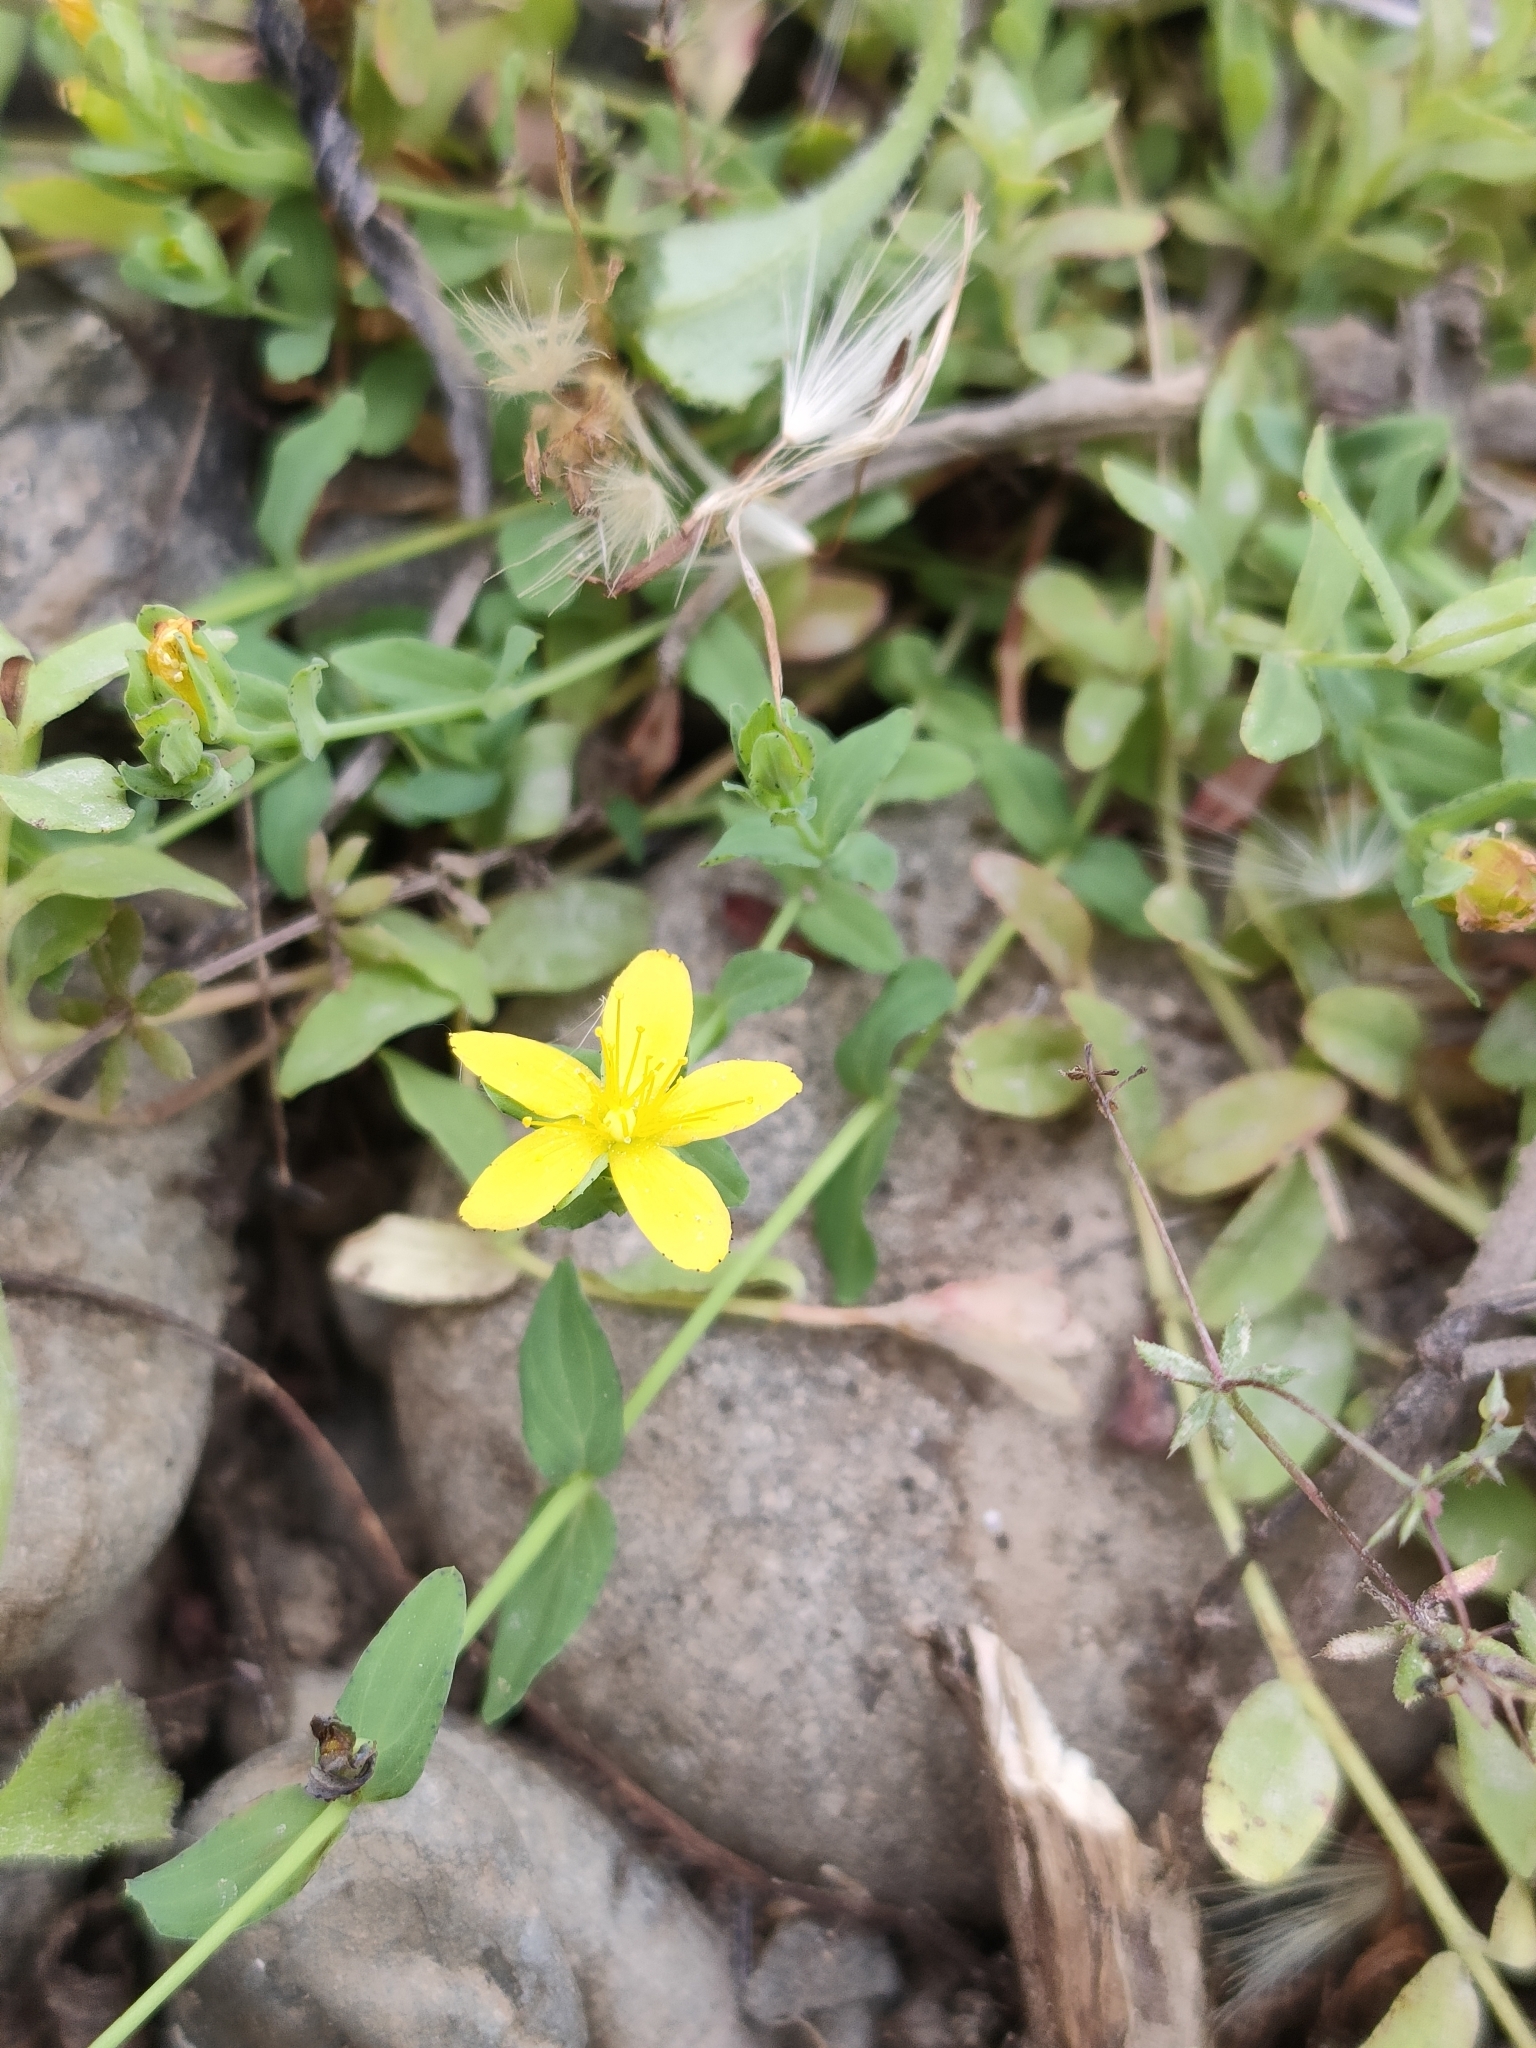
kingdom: Plantae
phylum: Tracheophyta
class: Magnoliopsida
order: Malpighiales
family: Hypericaceae
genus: Hypericum
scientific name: Hypericum humifusum
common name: Trailing st. john's-wort
